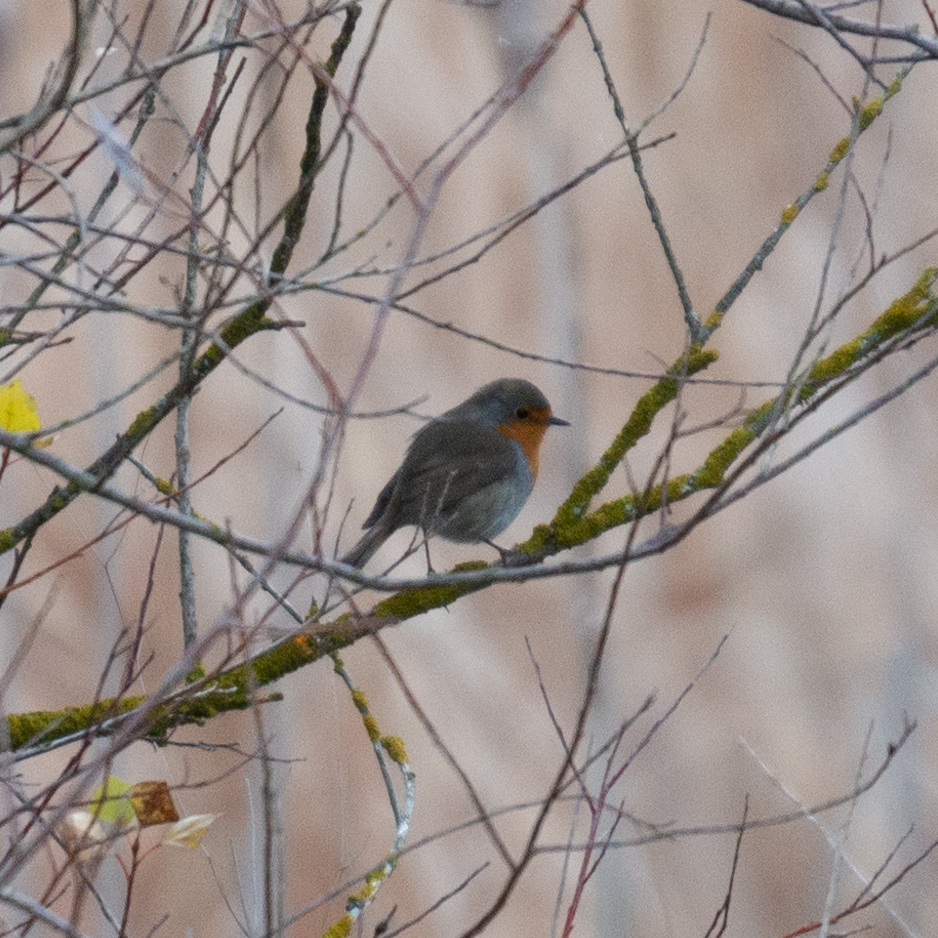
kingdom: Animalia
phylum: Chordata
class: Aves
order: Passeriformes
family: Muscicapidae
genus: Erithacus
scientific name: Erithacus rubecula
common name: European robin
